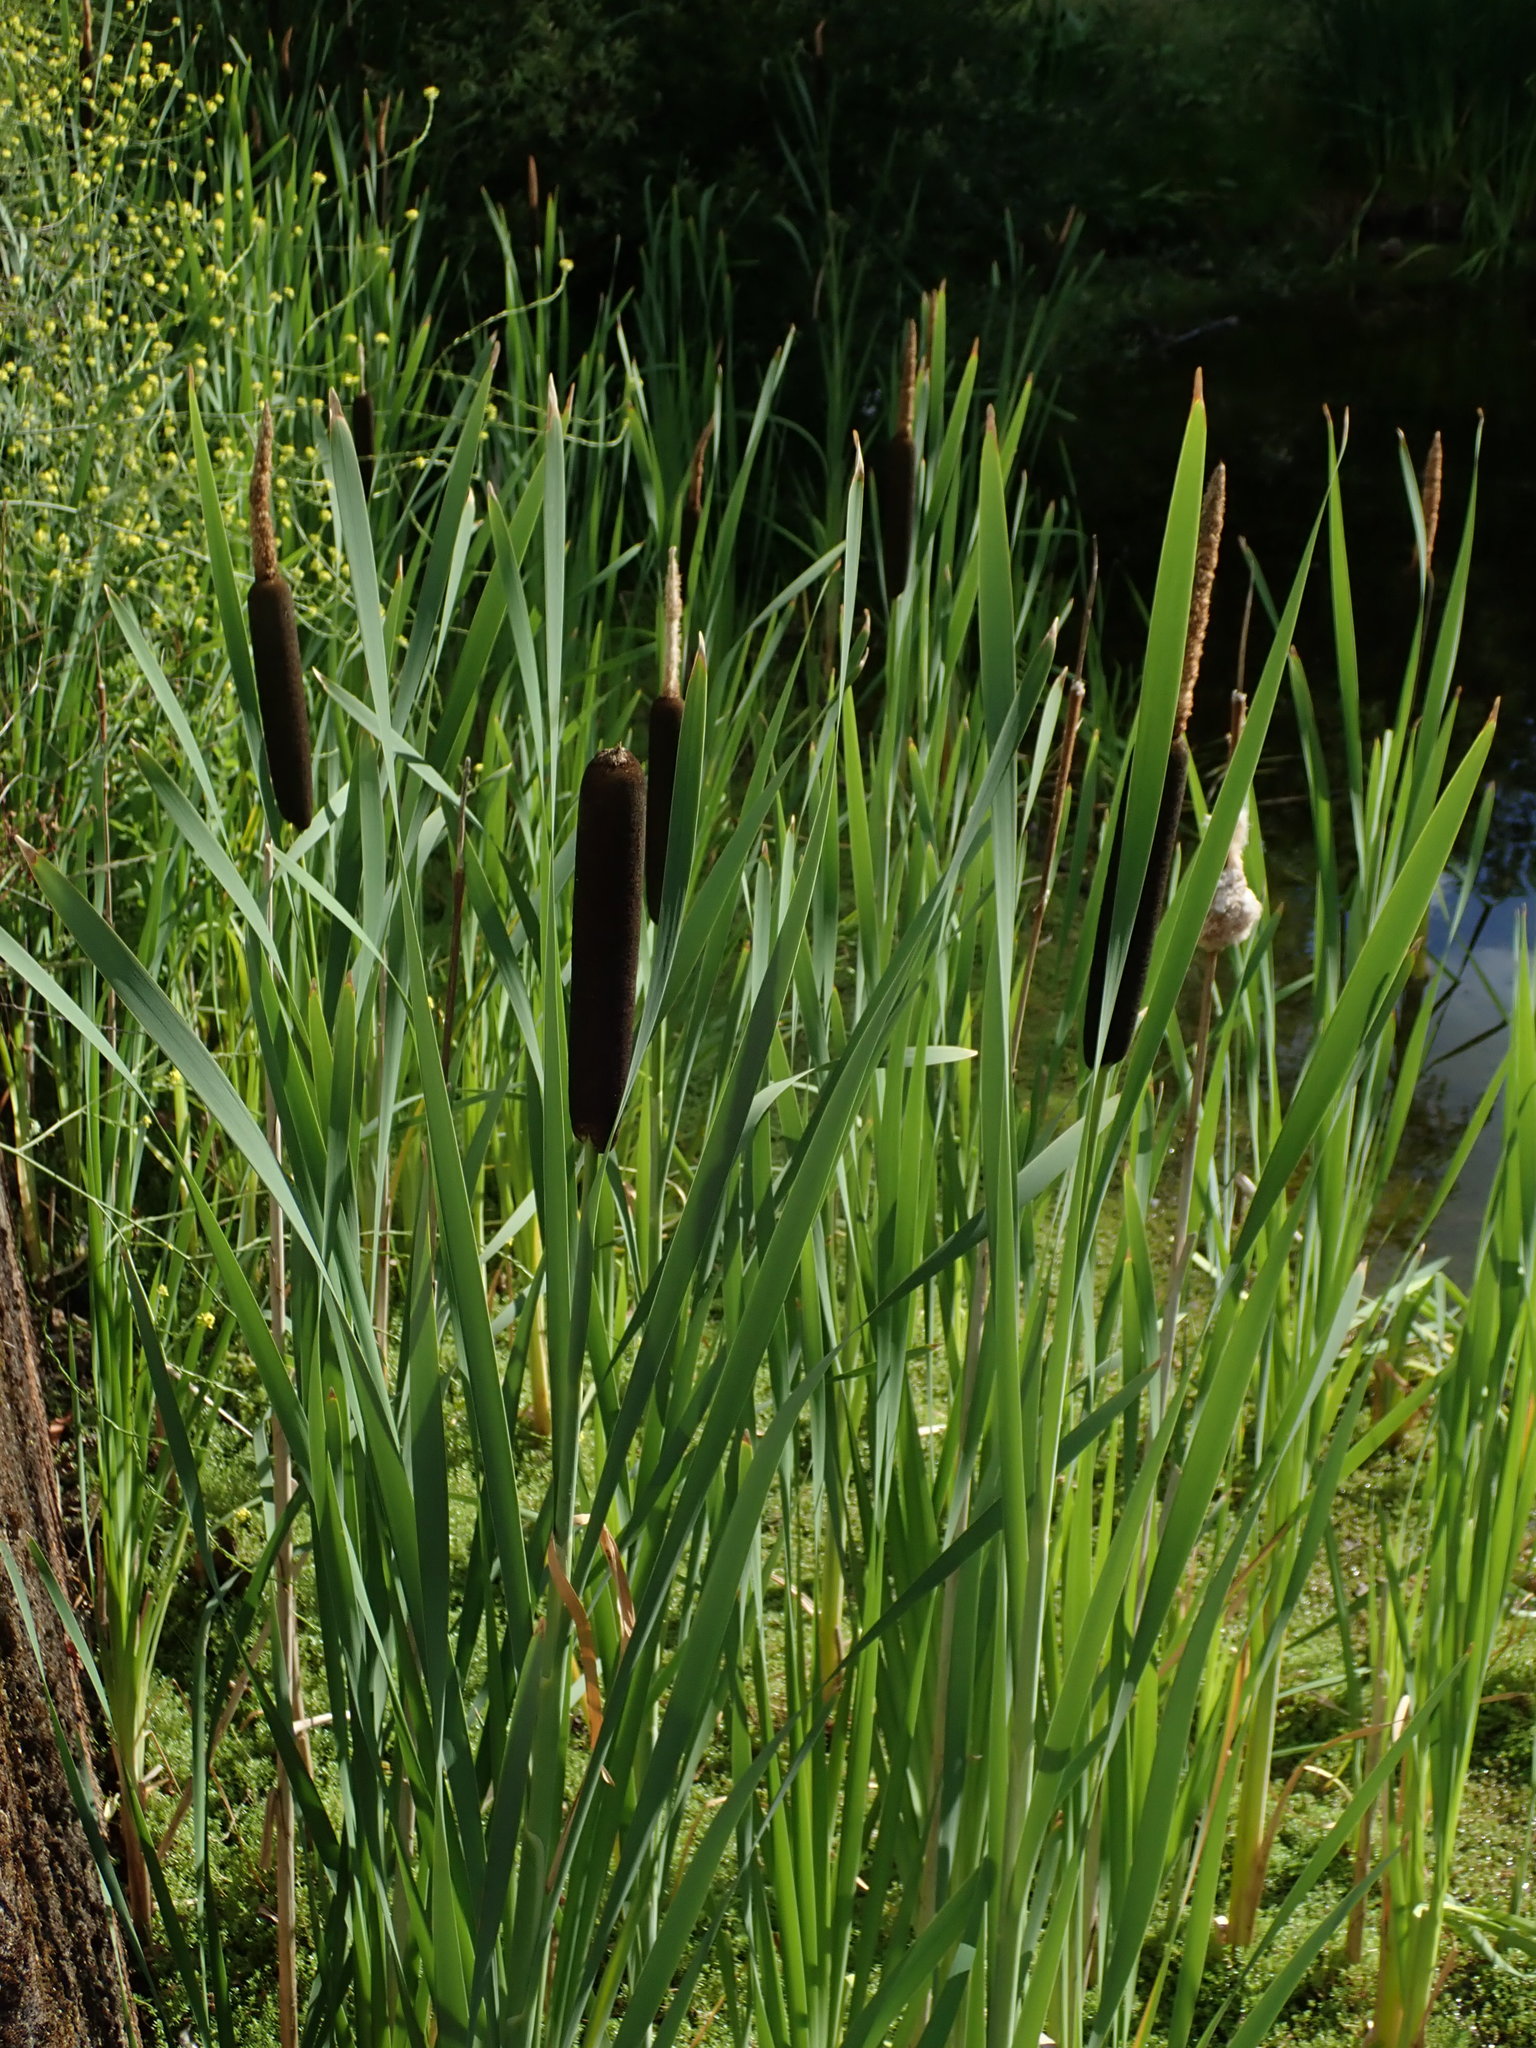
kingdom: Plantae
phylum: Tracheophyta
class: Liliopsida
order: Poales
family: Typhaceae
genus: Typha
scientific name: Typha latifolia
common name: Broadleaf cattail
